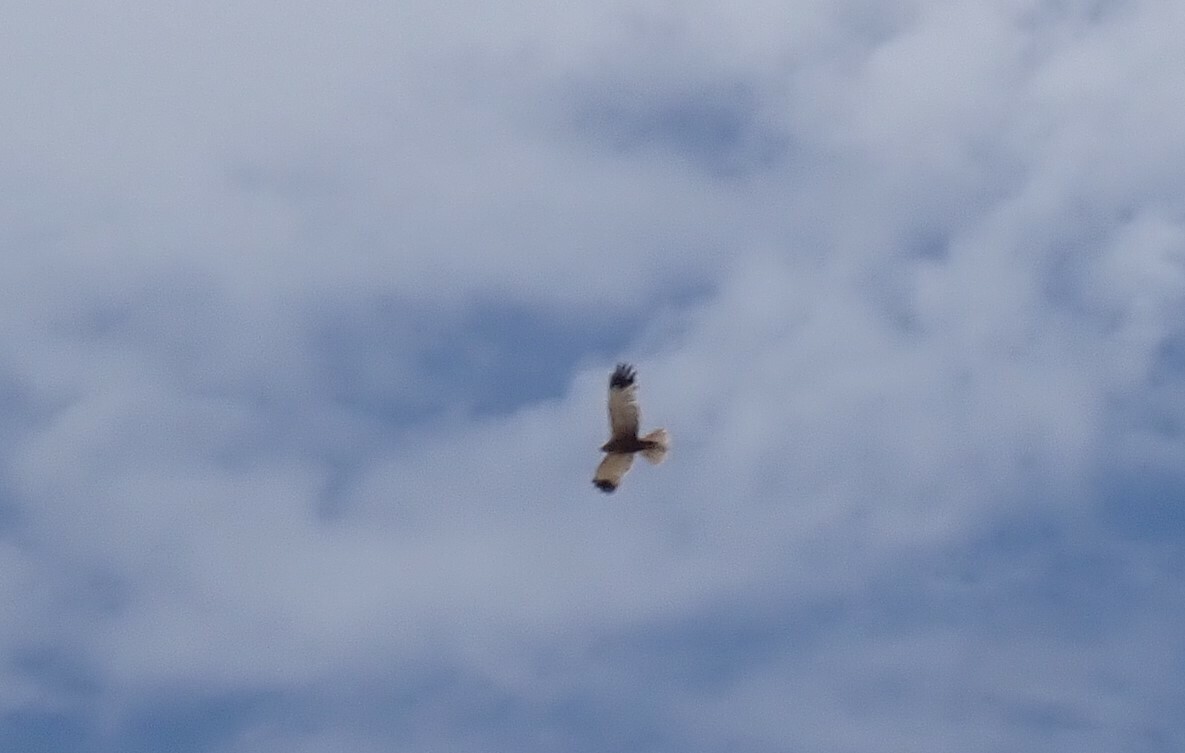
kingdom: Animalia
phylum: Chordata
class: Aves
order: Accipitriformes
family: Accipitridae
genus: Circus
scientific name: Circus aeruginosus
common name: Western marsh harrier
